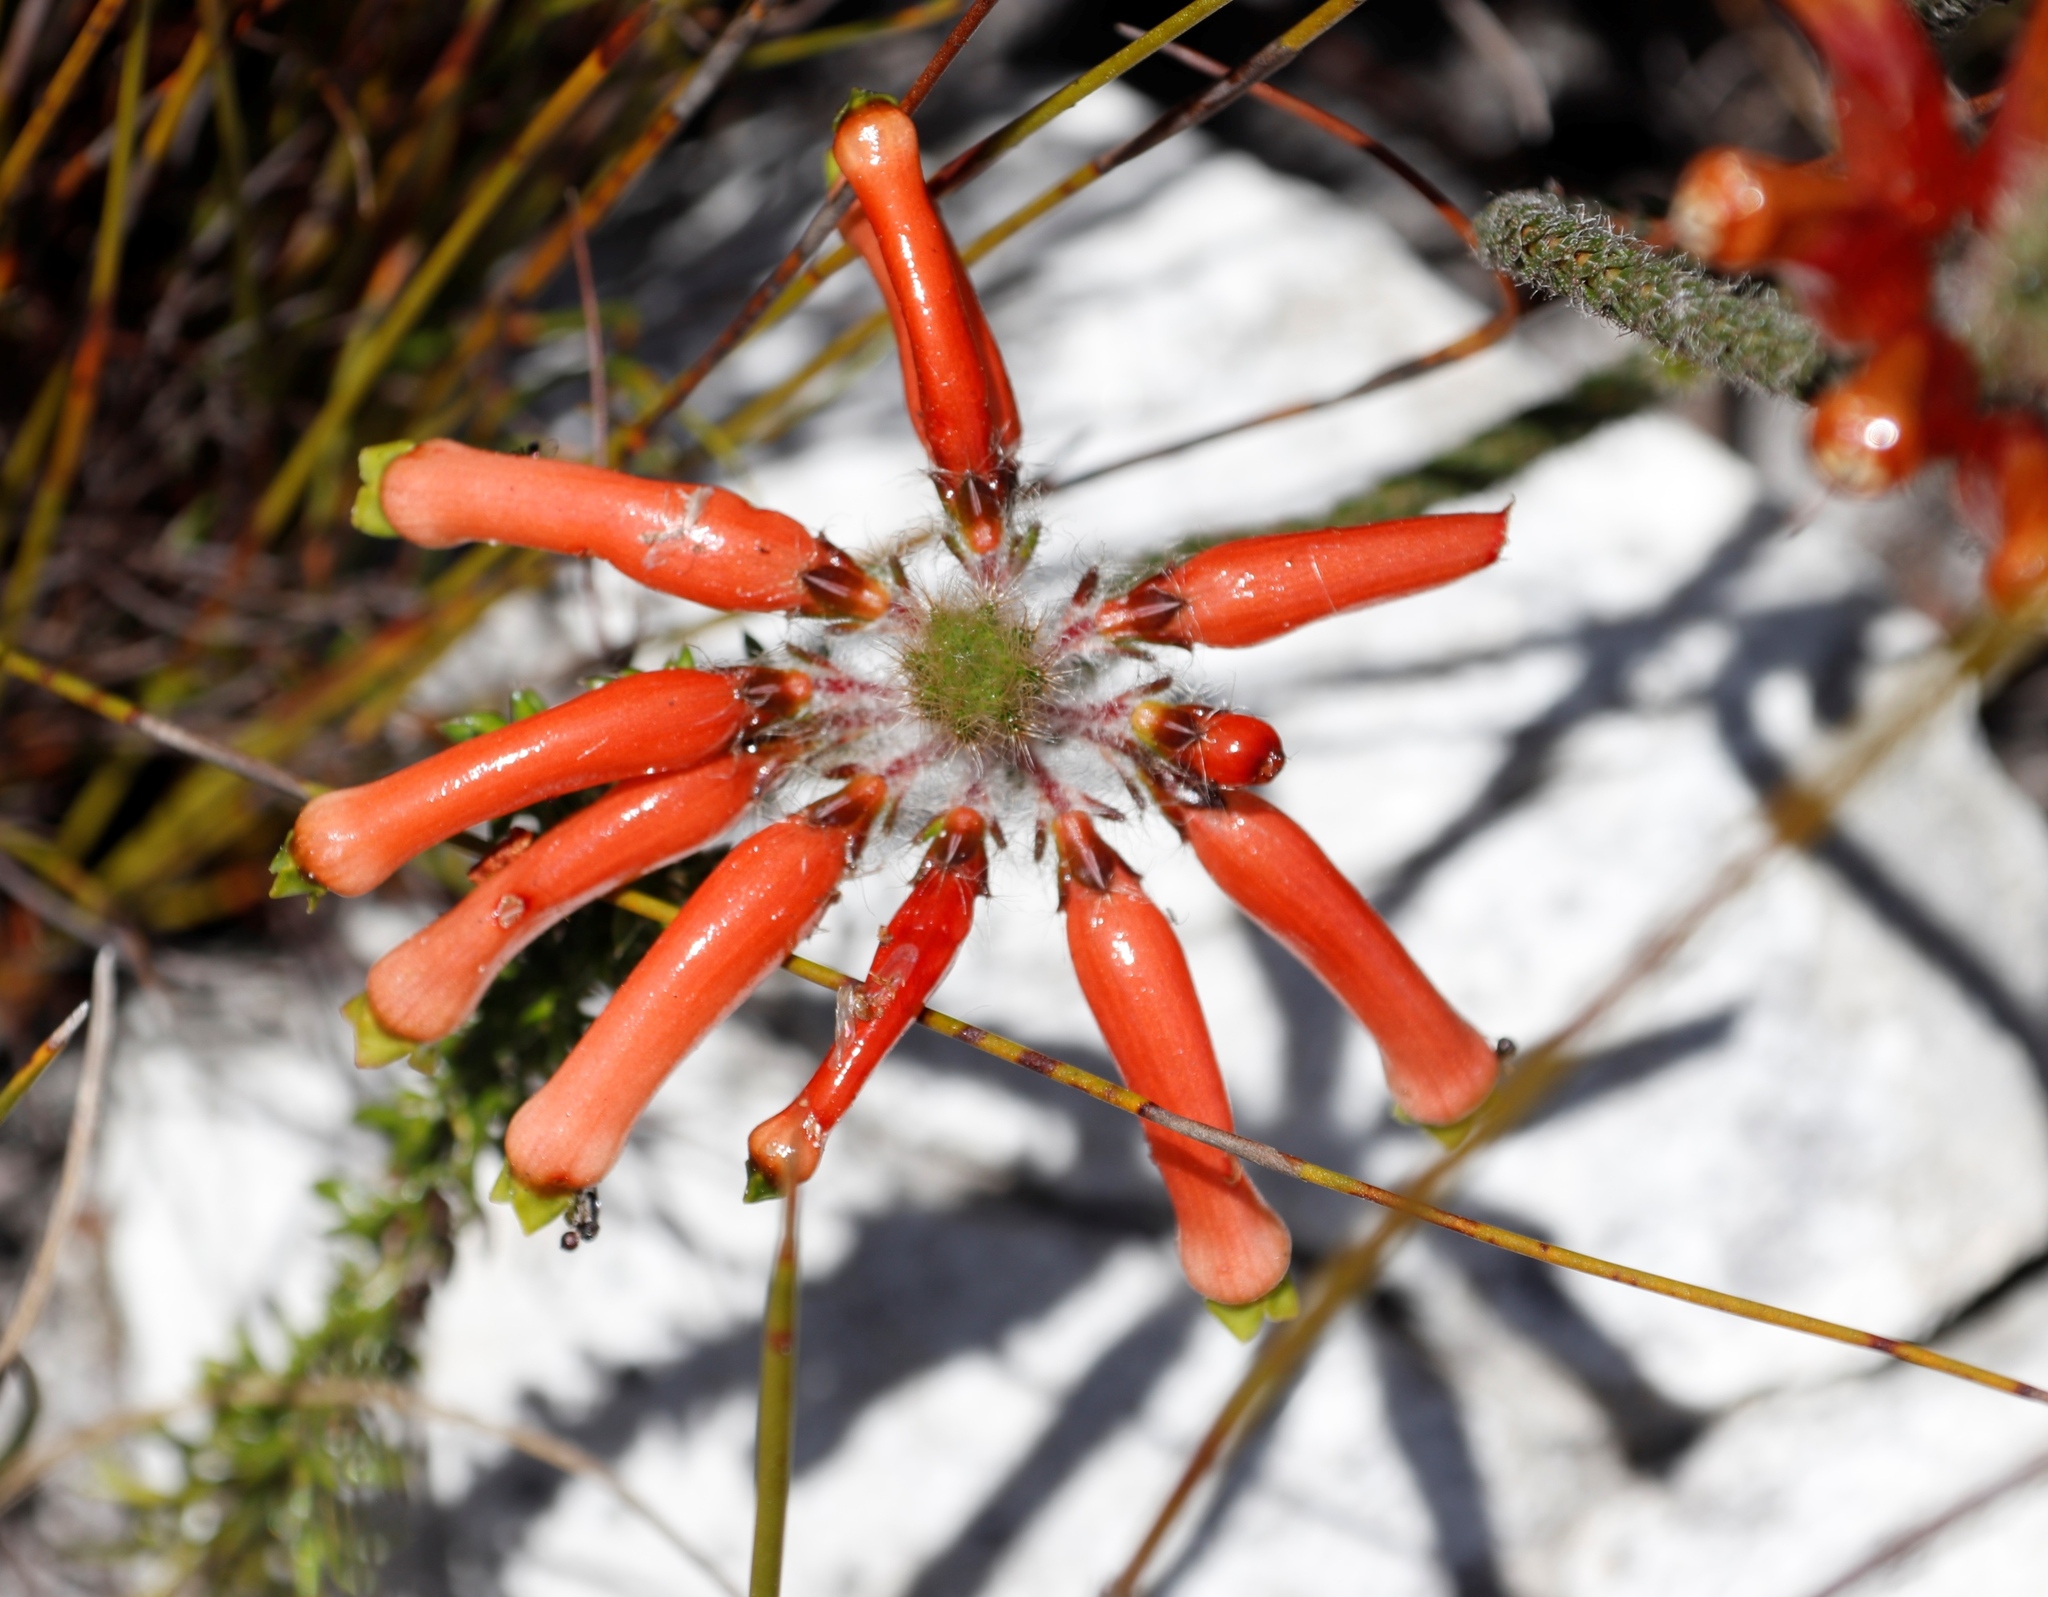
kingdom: Plantae
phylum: Tracheophyta
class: Magnoliopsida
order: Ericales
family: Ericaceae
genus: Erica
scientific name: Erica massonii
